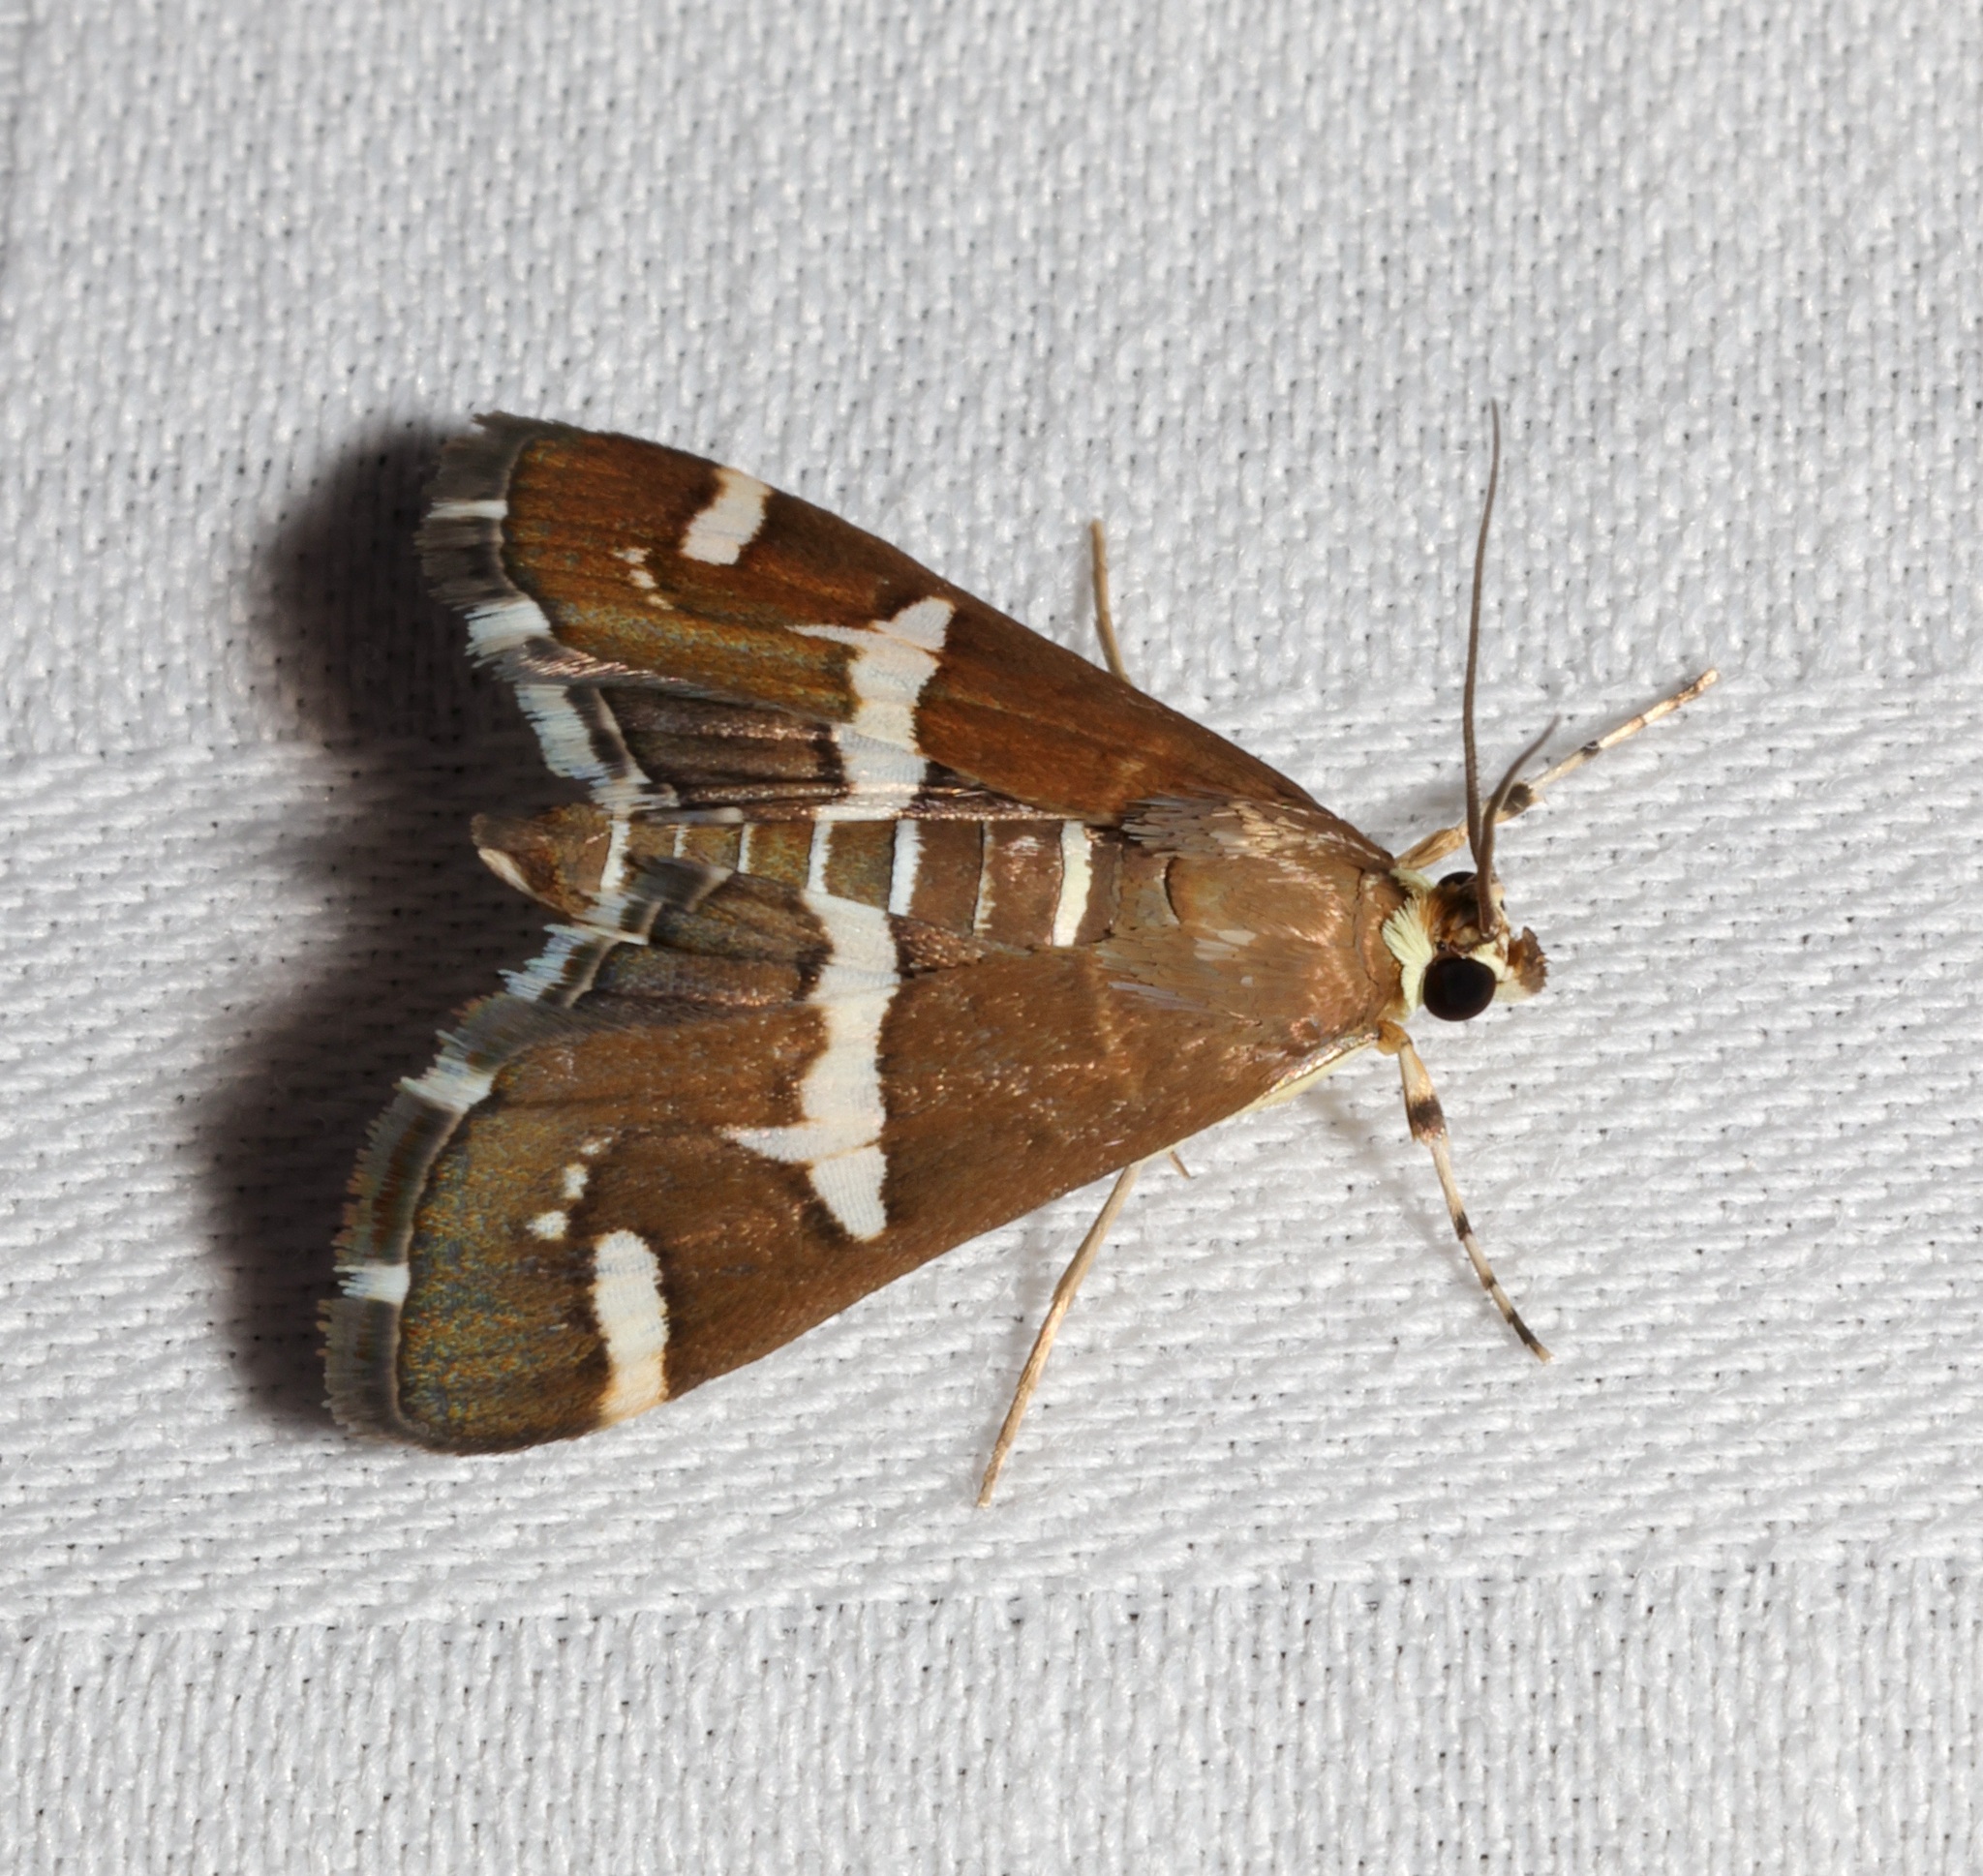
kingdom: Animalia
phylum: Arthropoda
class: Insecta
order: Lepidoptera
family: Crambidae
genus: Spoladea
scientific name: Spoladea recurvalis
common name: Beet webworm moth
